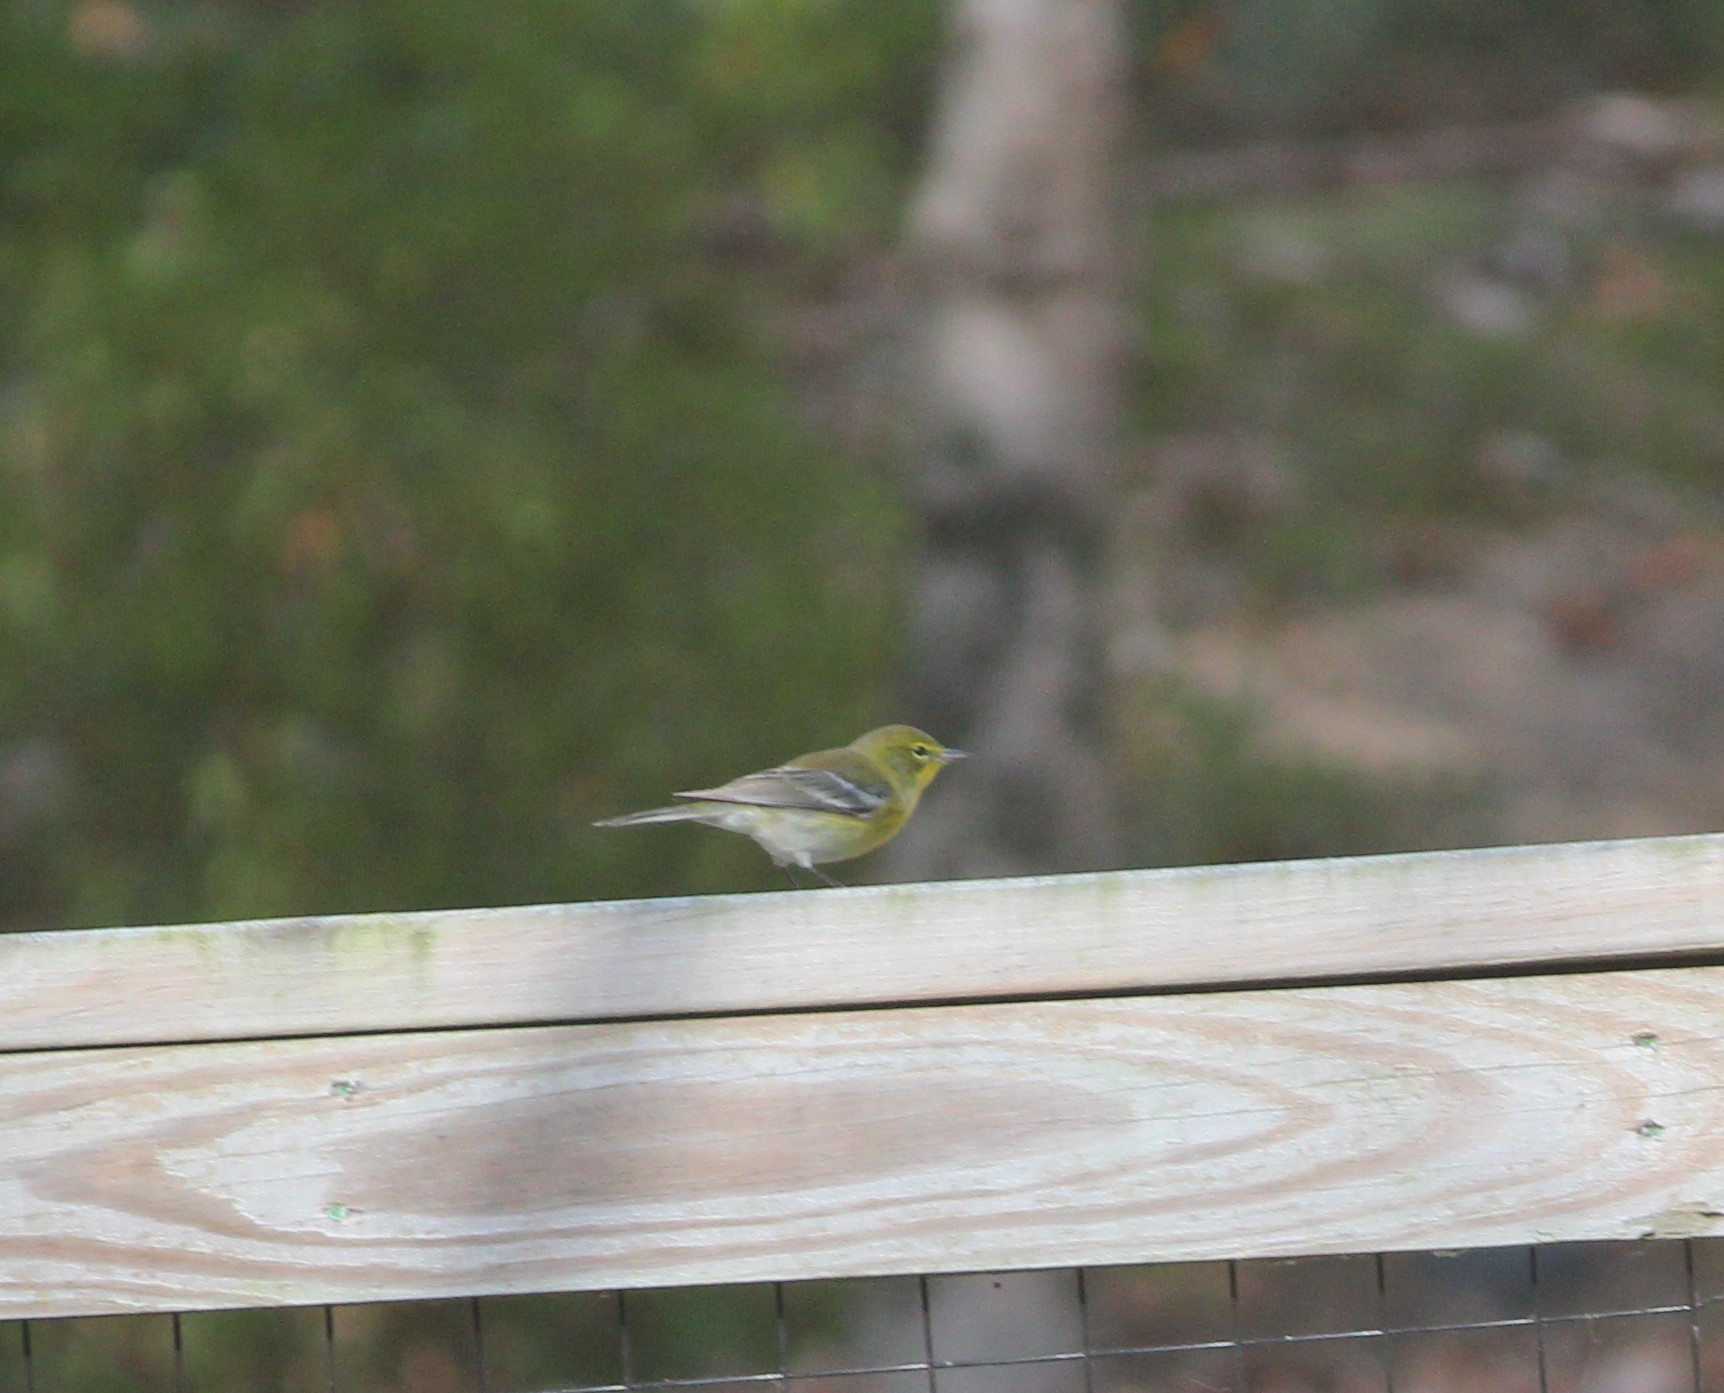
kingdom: Animalia
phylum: Chordata
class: Aves
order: Passeriformes
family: Parulidae
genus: Setophaga
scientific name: Setophaga pinus
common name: Pine warbler
